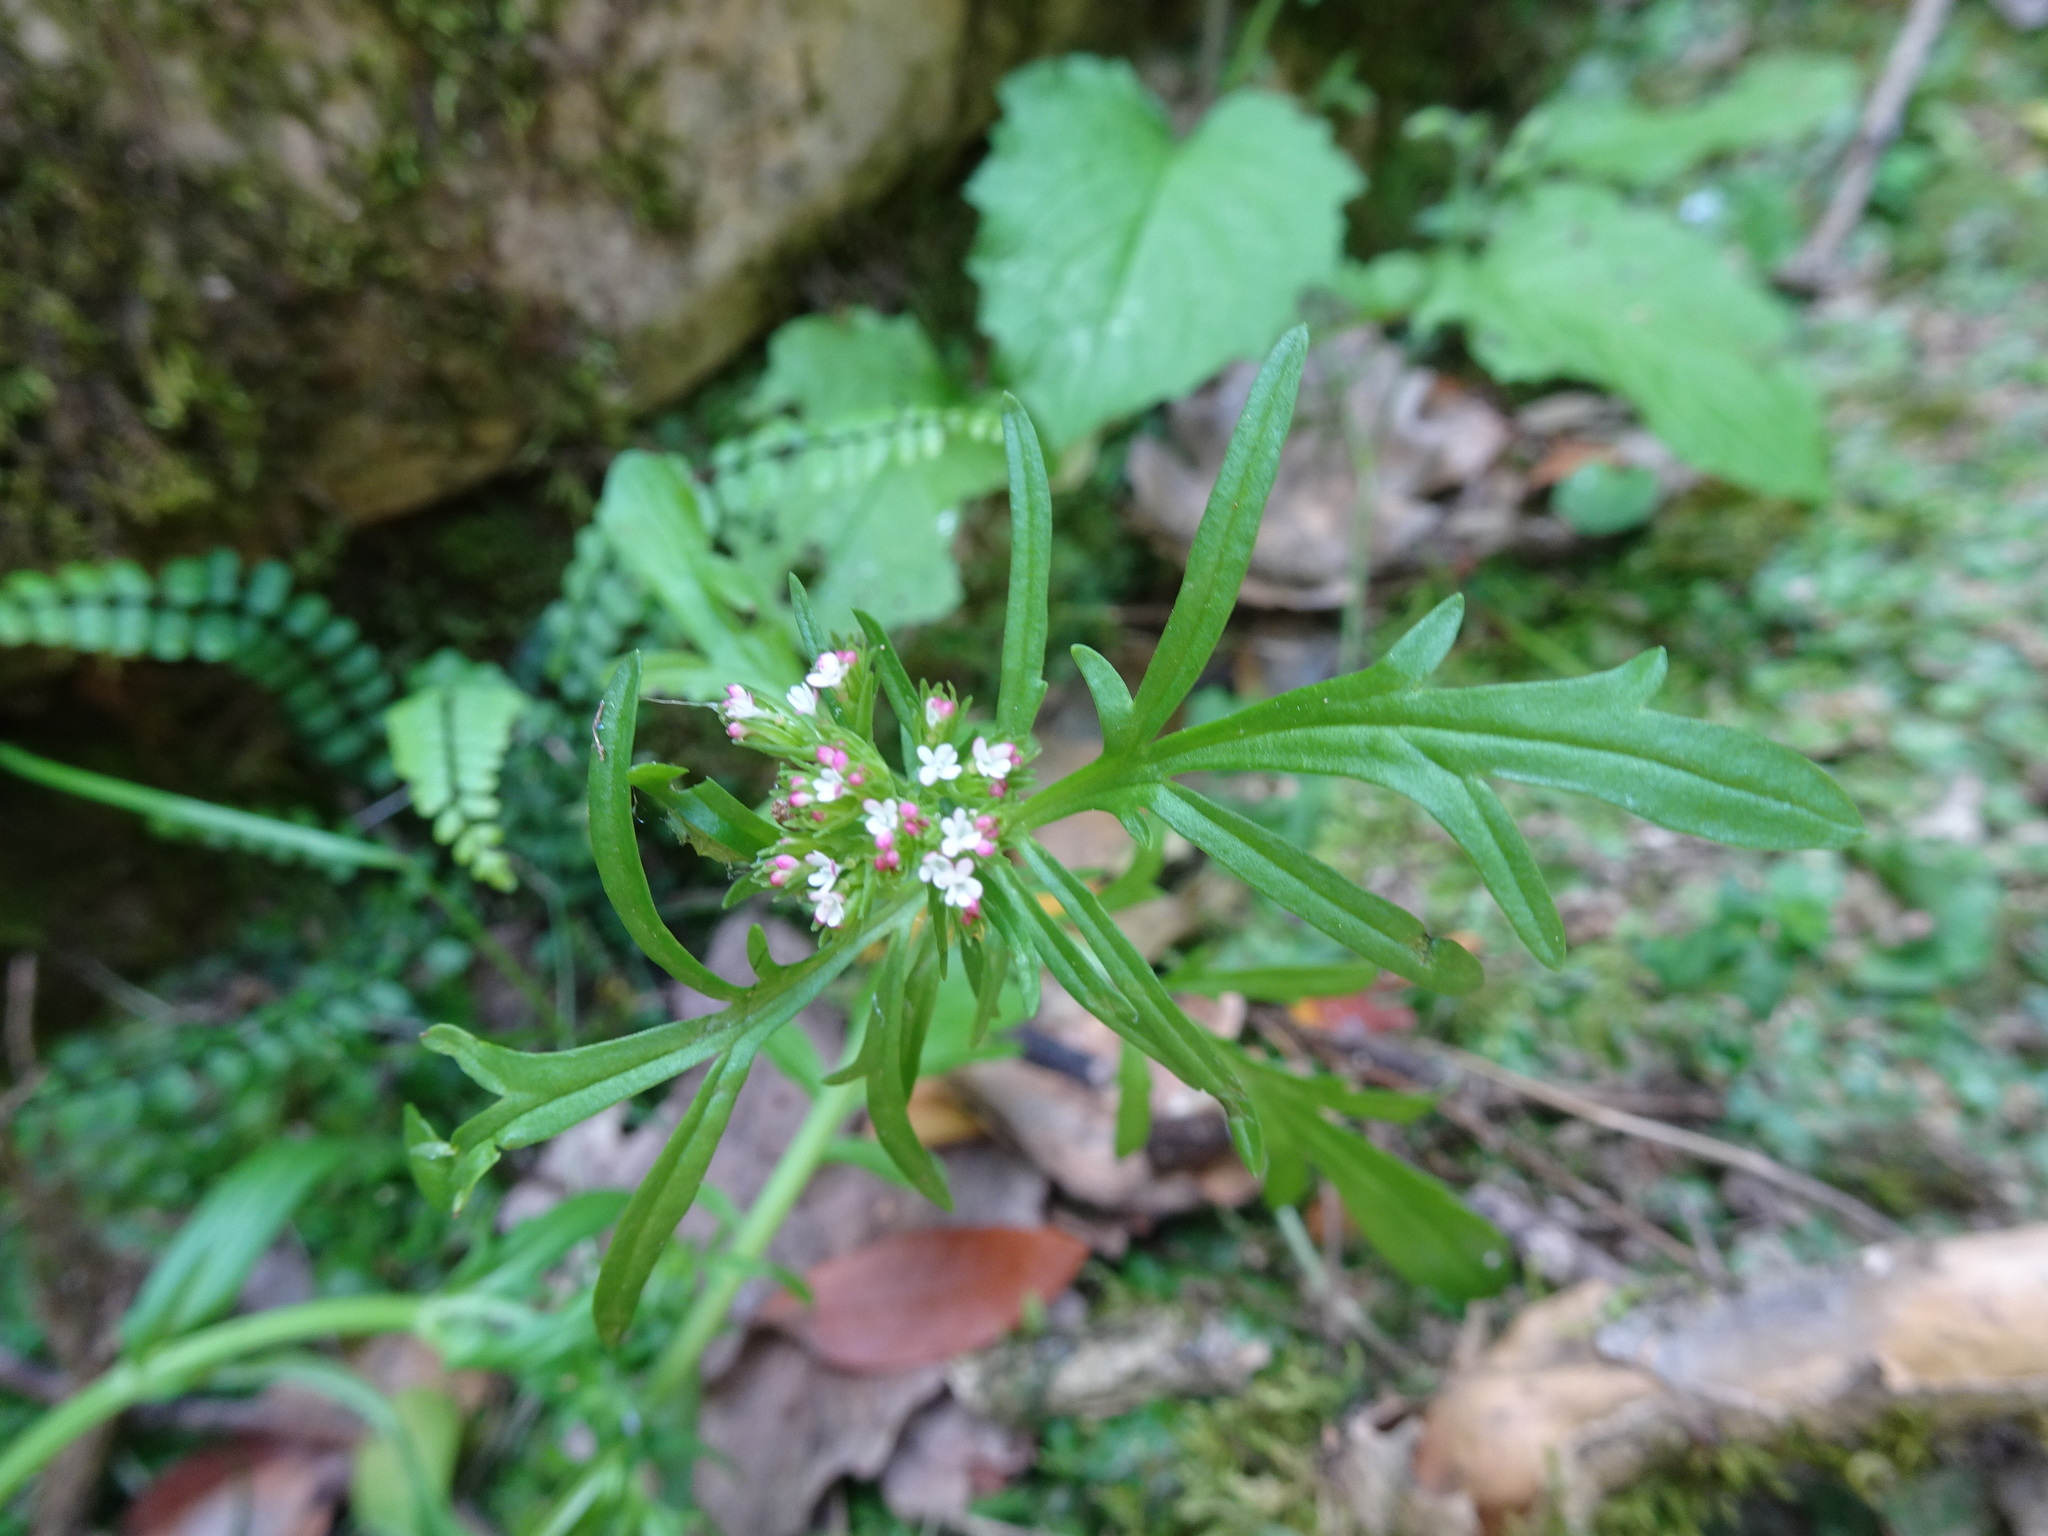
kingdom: Plantae
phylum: Tracheophyta
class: Magnoliopsida
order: Dipsacales
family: Caprifoliaceae
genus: Centranthus
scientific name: Centranthus calcitrapae
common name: Annual valerian
